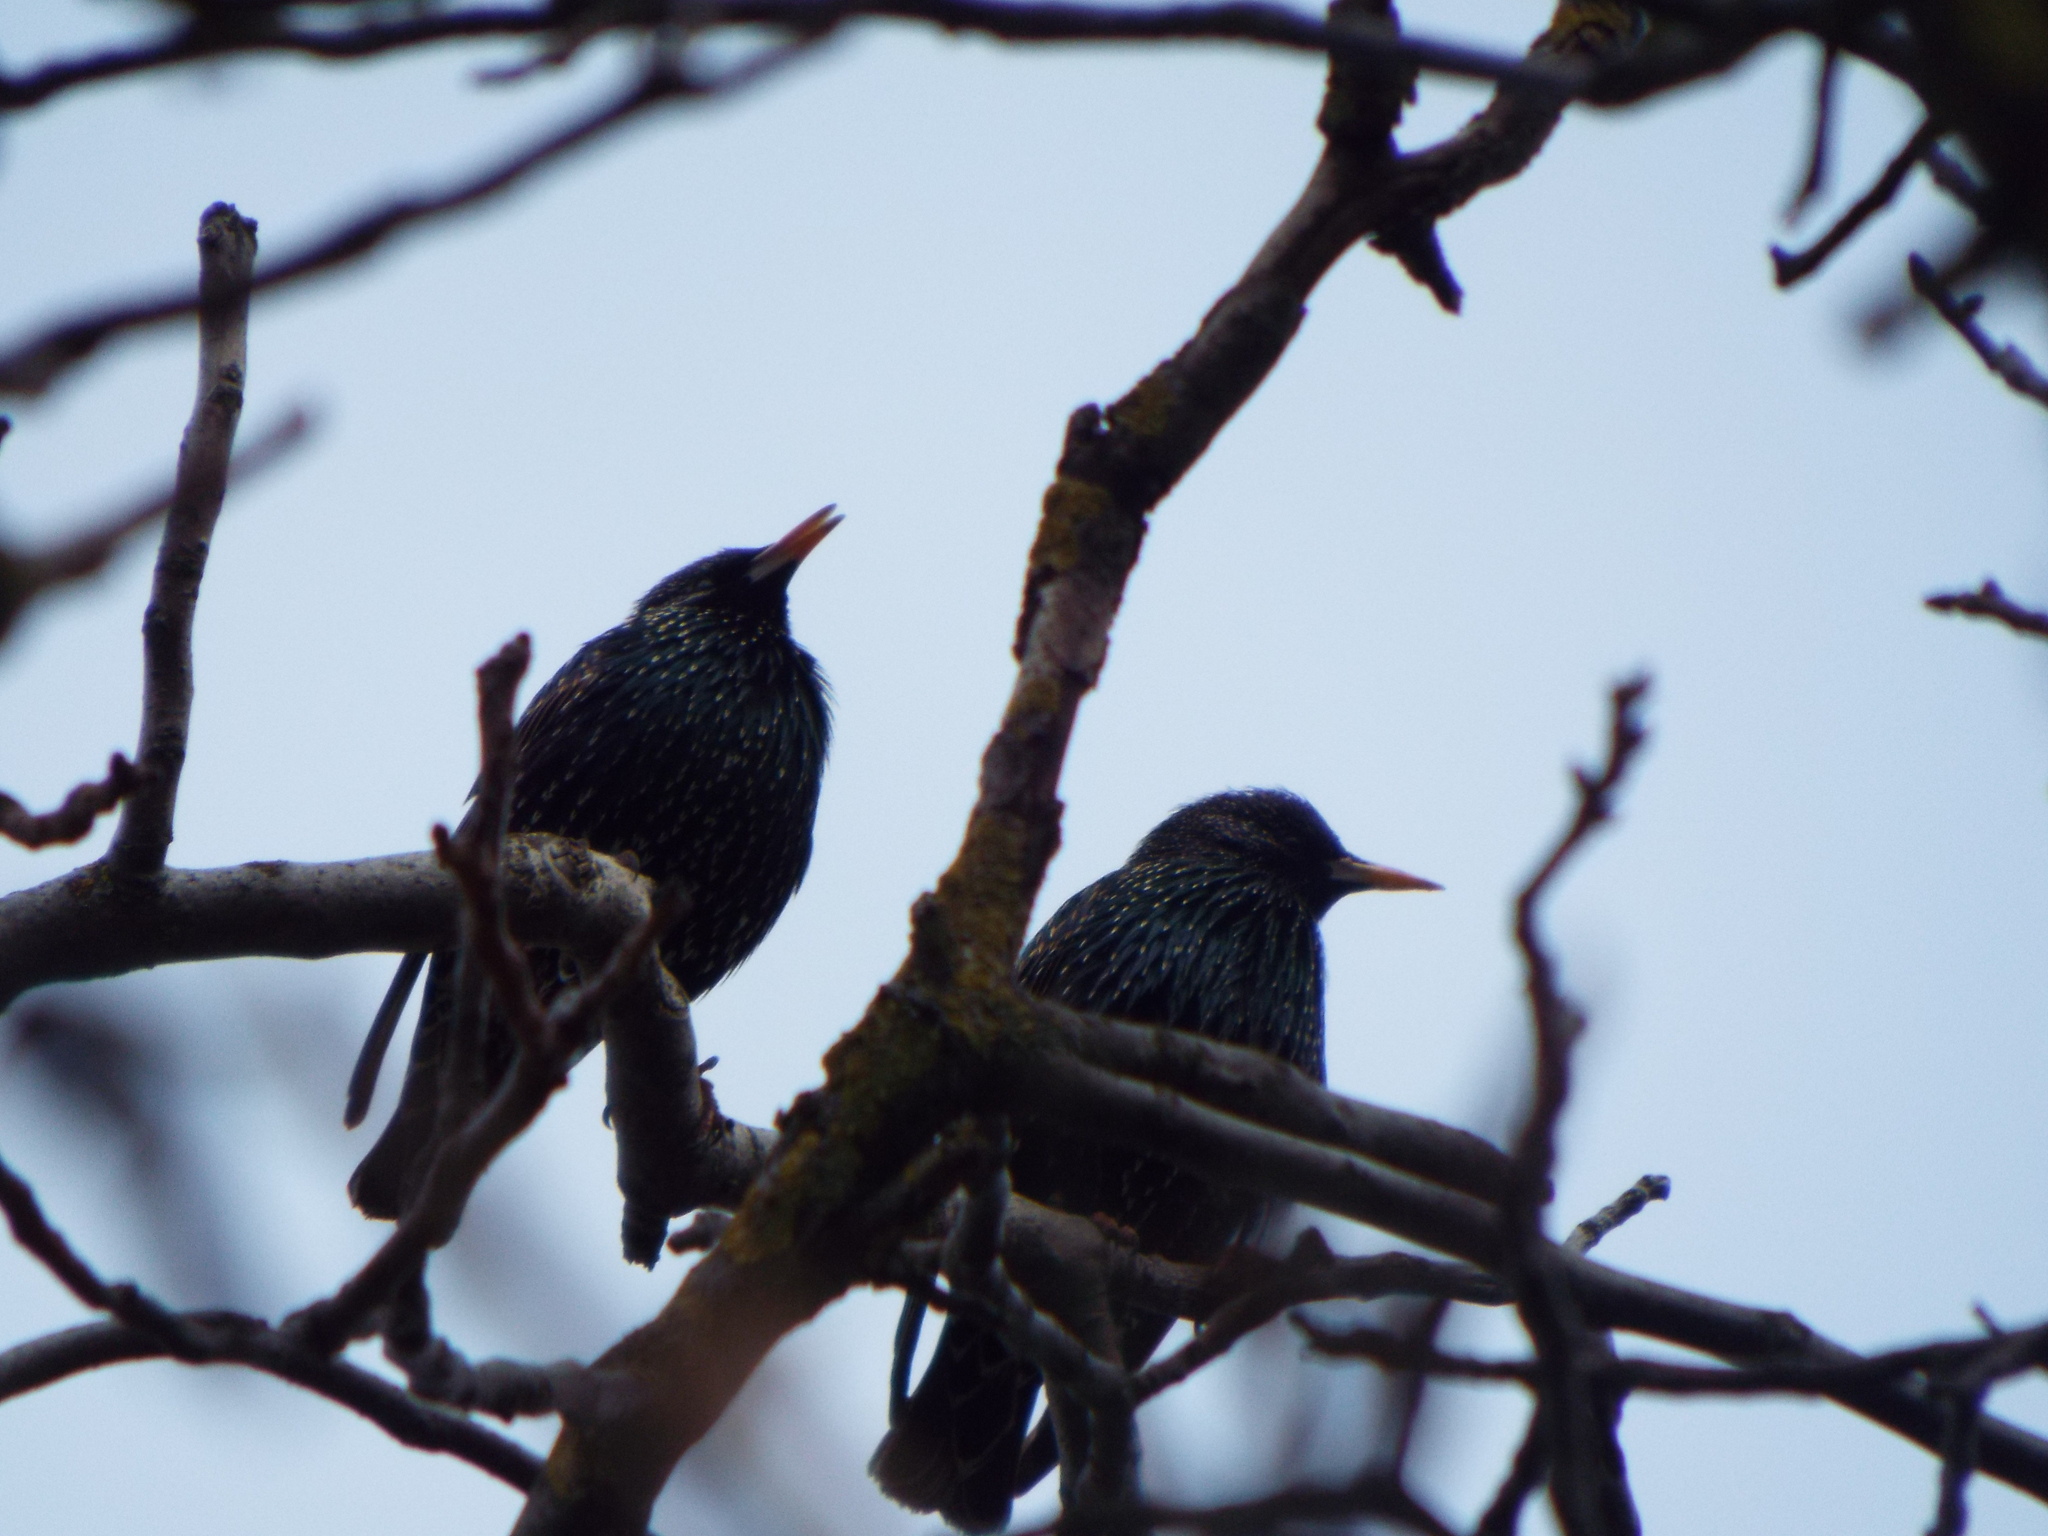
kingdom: Animalia
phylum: Chordata
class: Aves
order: Passeriformes
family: Sturnidae
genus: Sturnus
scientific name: Sturnus vulgaris
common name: Common starling
